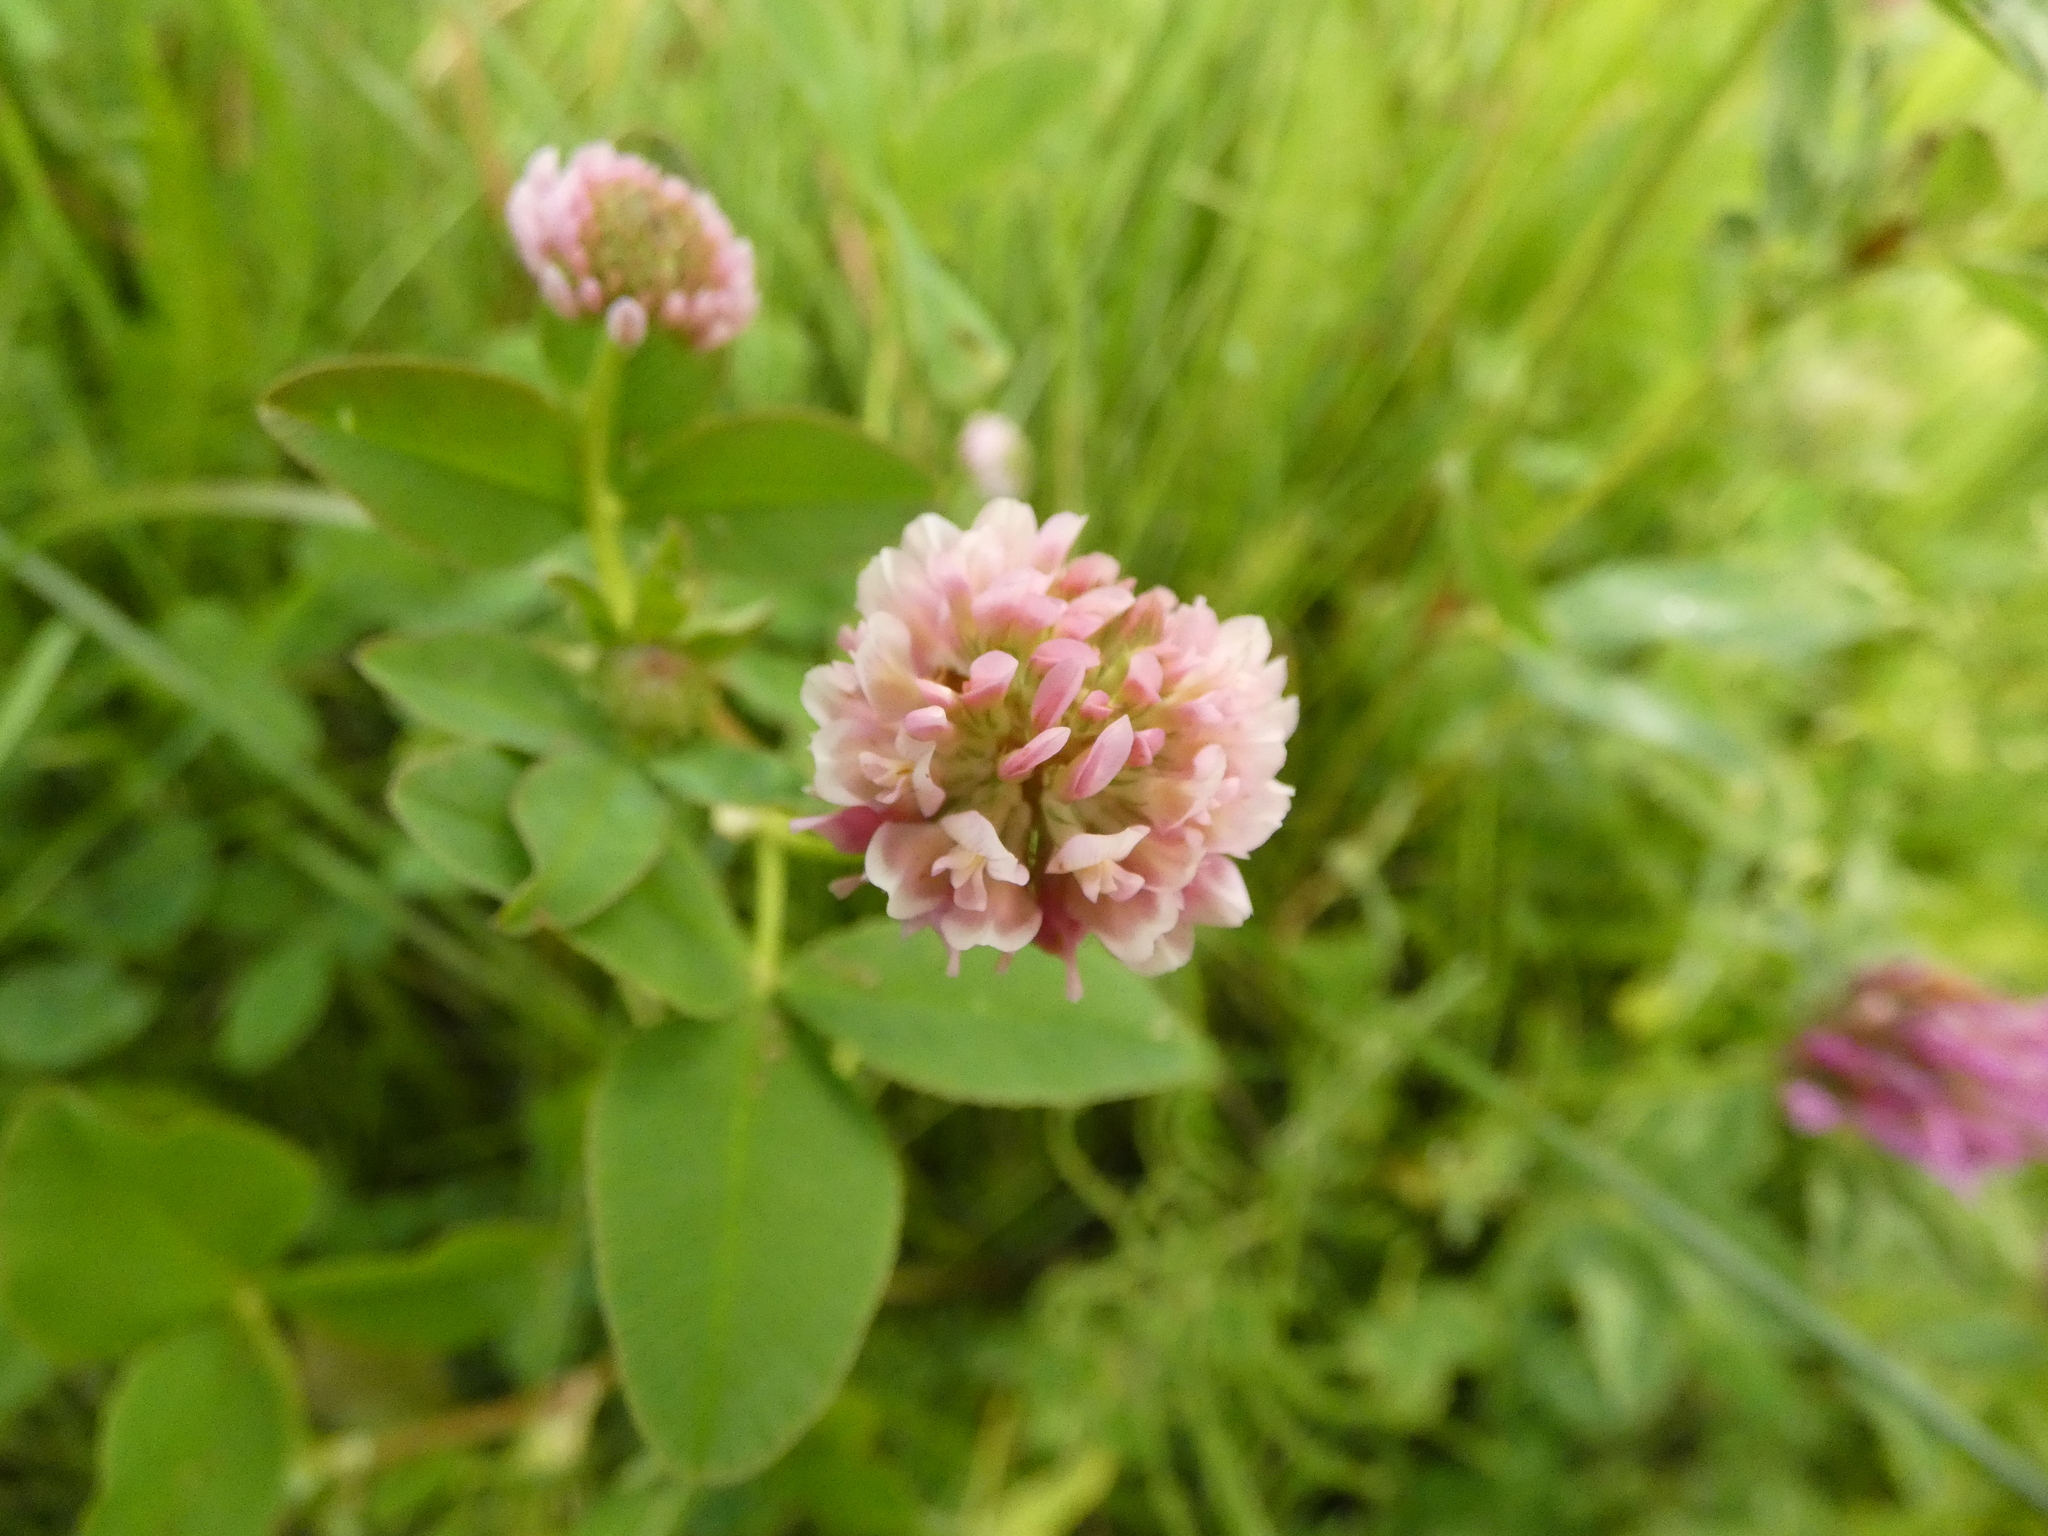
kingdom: Plantae
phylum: Tracheophyta
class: Magnoliopsida
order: Fabales
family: Fabaceae
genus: Trifolium
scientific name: Trifolium hybridum
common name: Alsike clover
